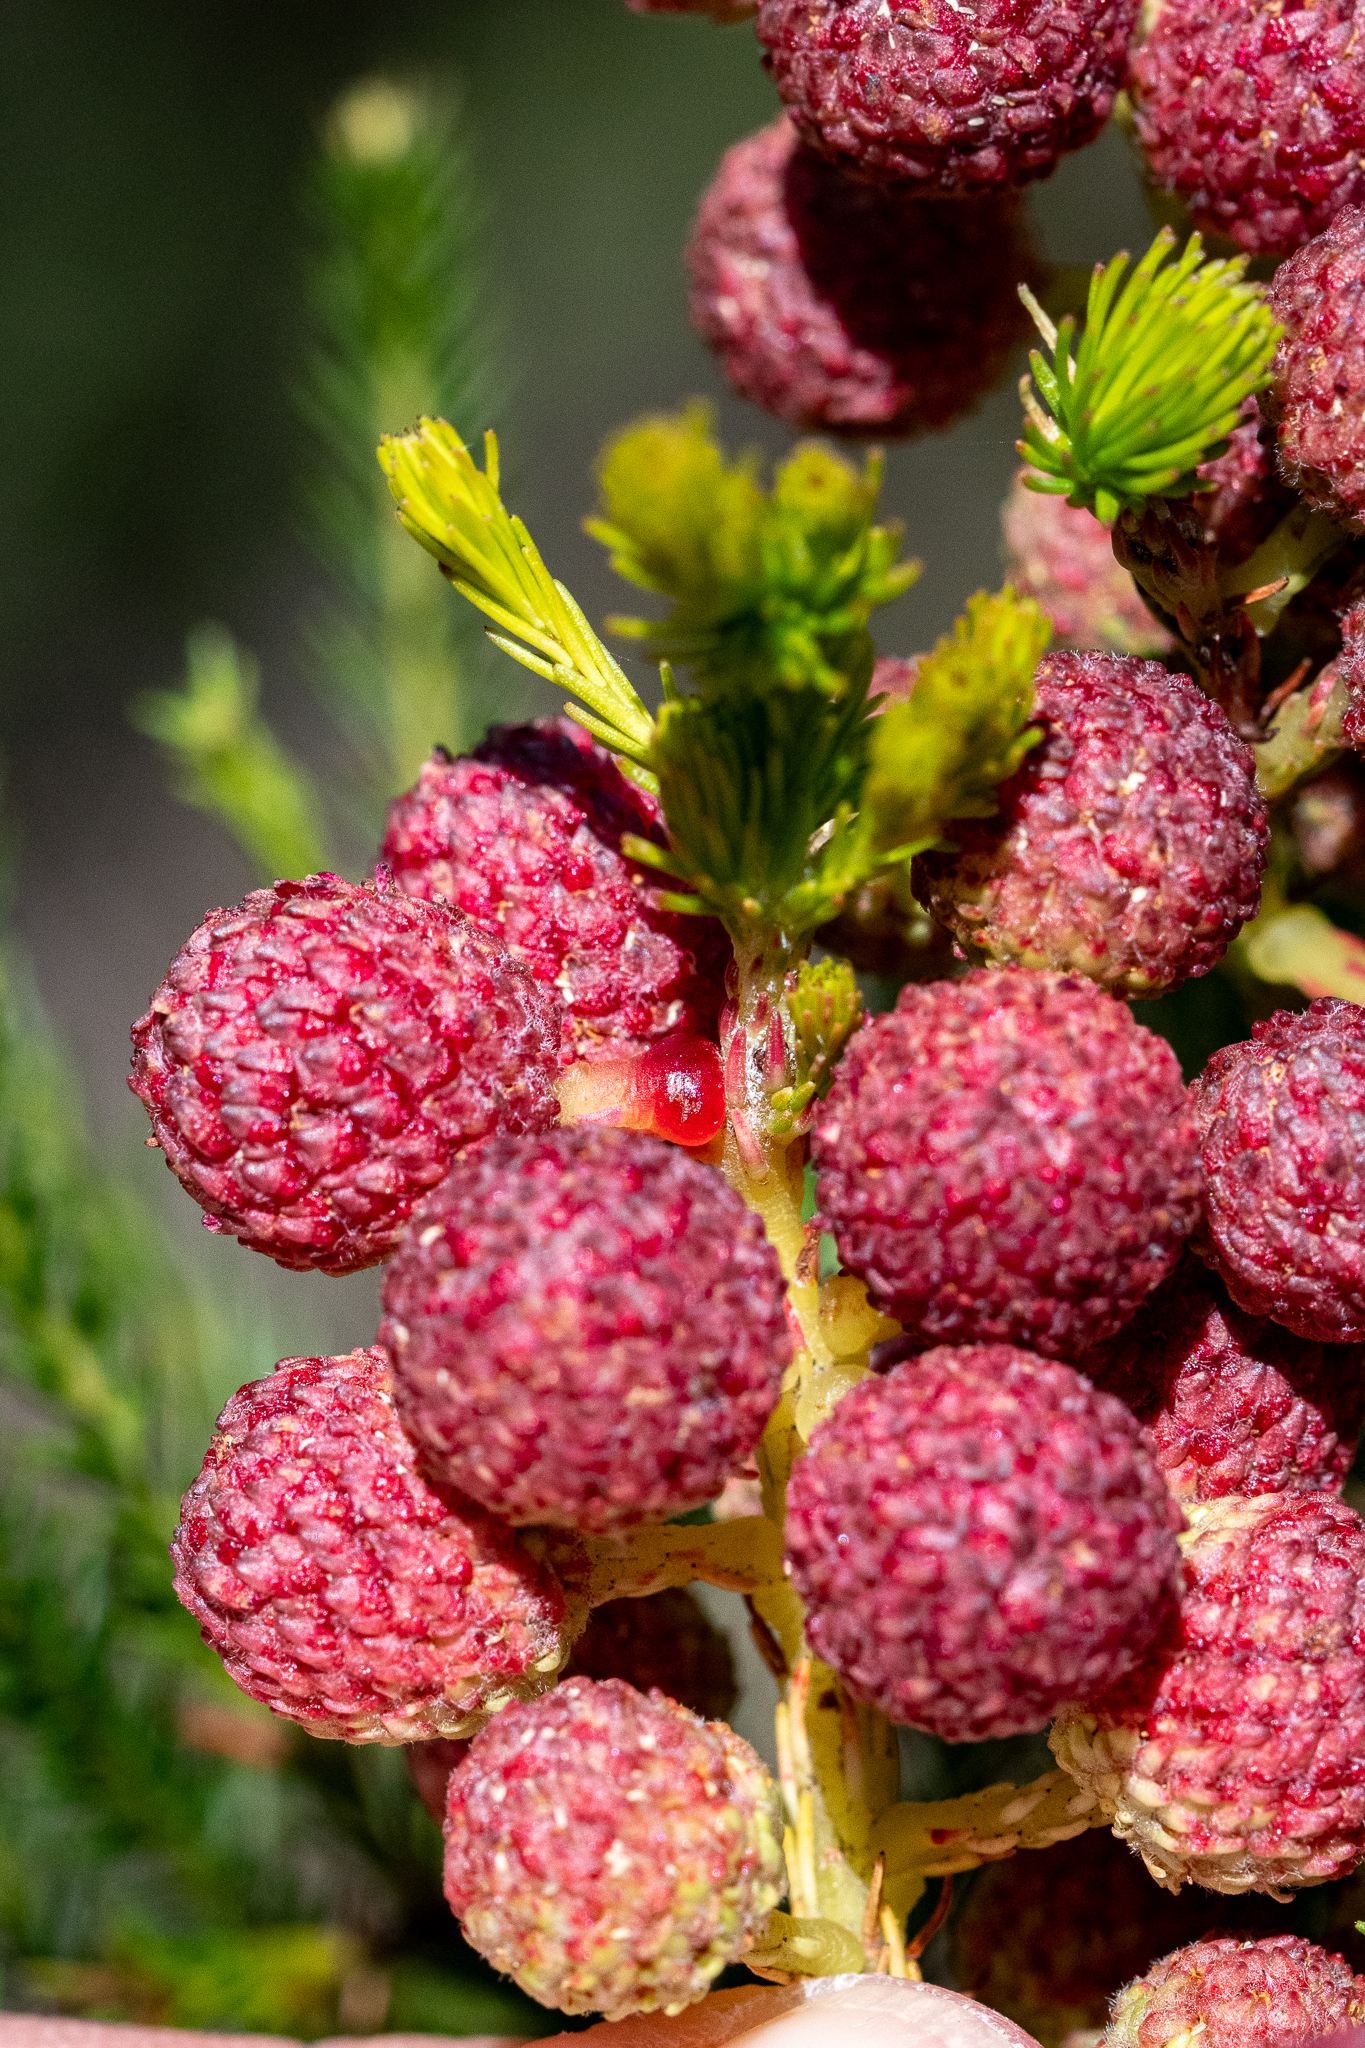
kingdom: Plantae
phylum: Tracheophyta
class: Magnoliopsida
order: Bruniales
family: Bruniaceae
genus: Berzelia
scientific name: Berzelia lanuginosa
